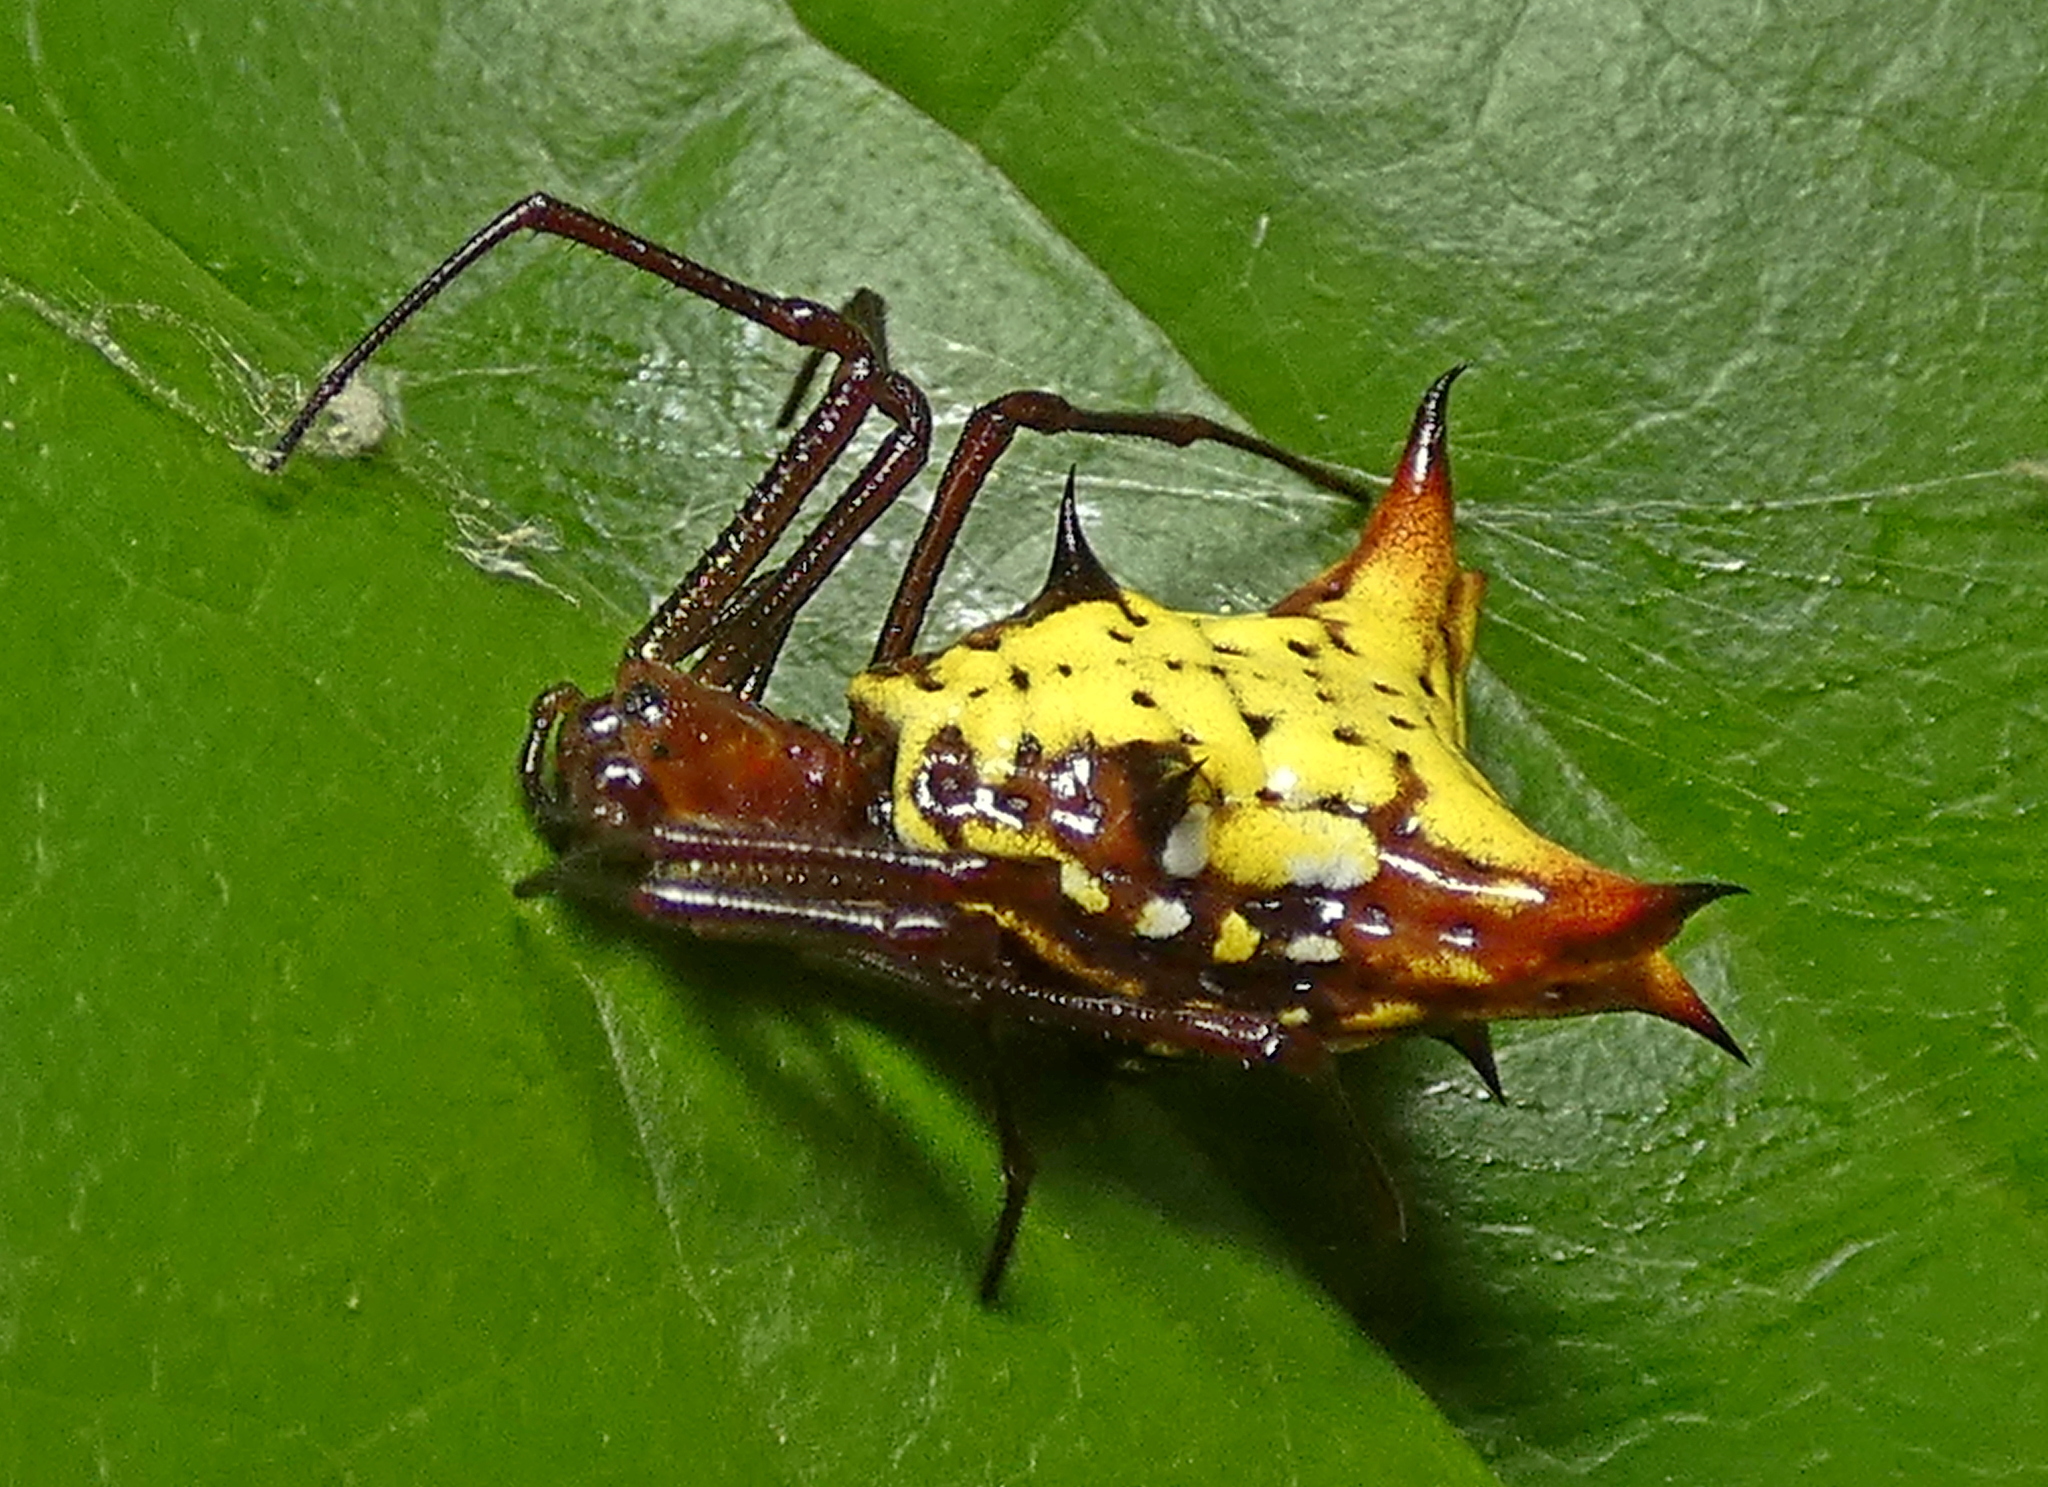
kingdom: Animalia
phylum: Arthropoda
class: Arachnida
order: Araneae
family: Araneidae
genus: Micrathena
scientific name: Micrathena fissispina
